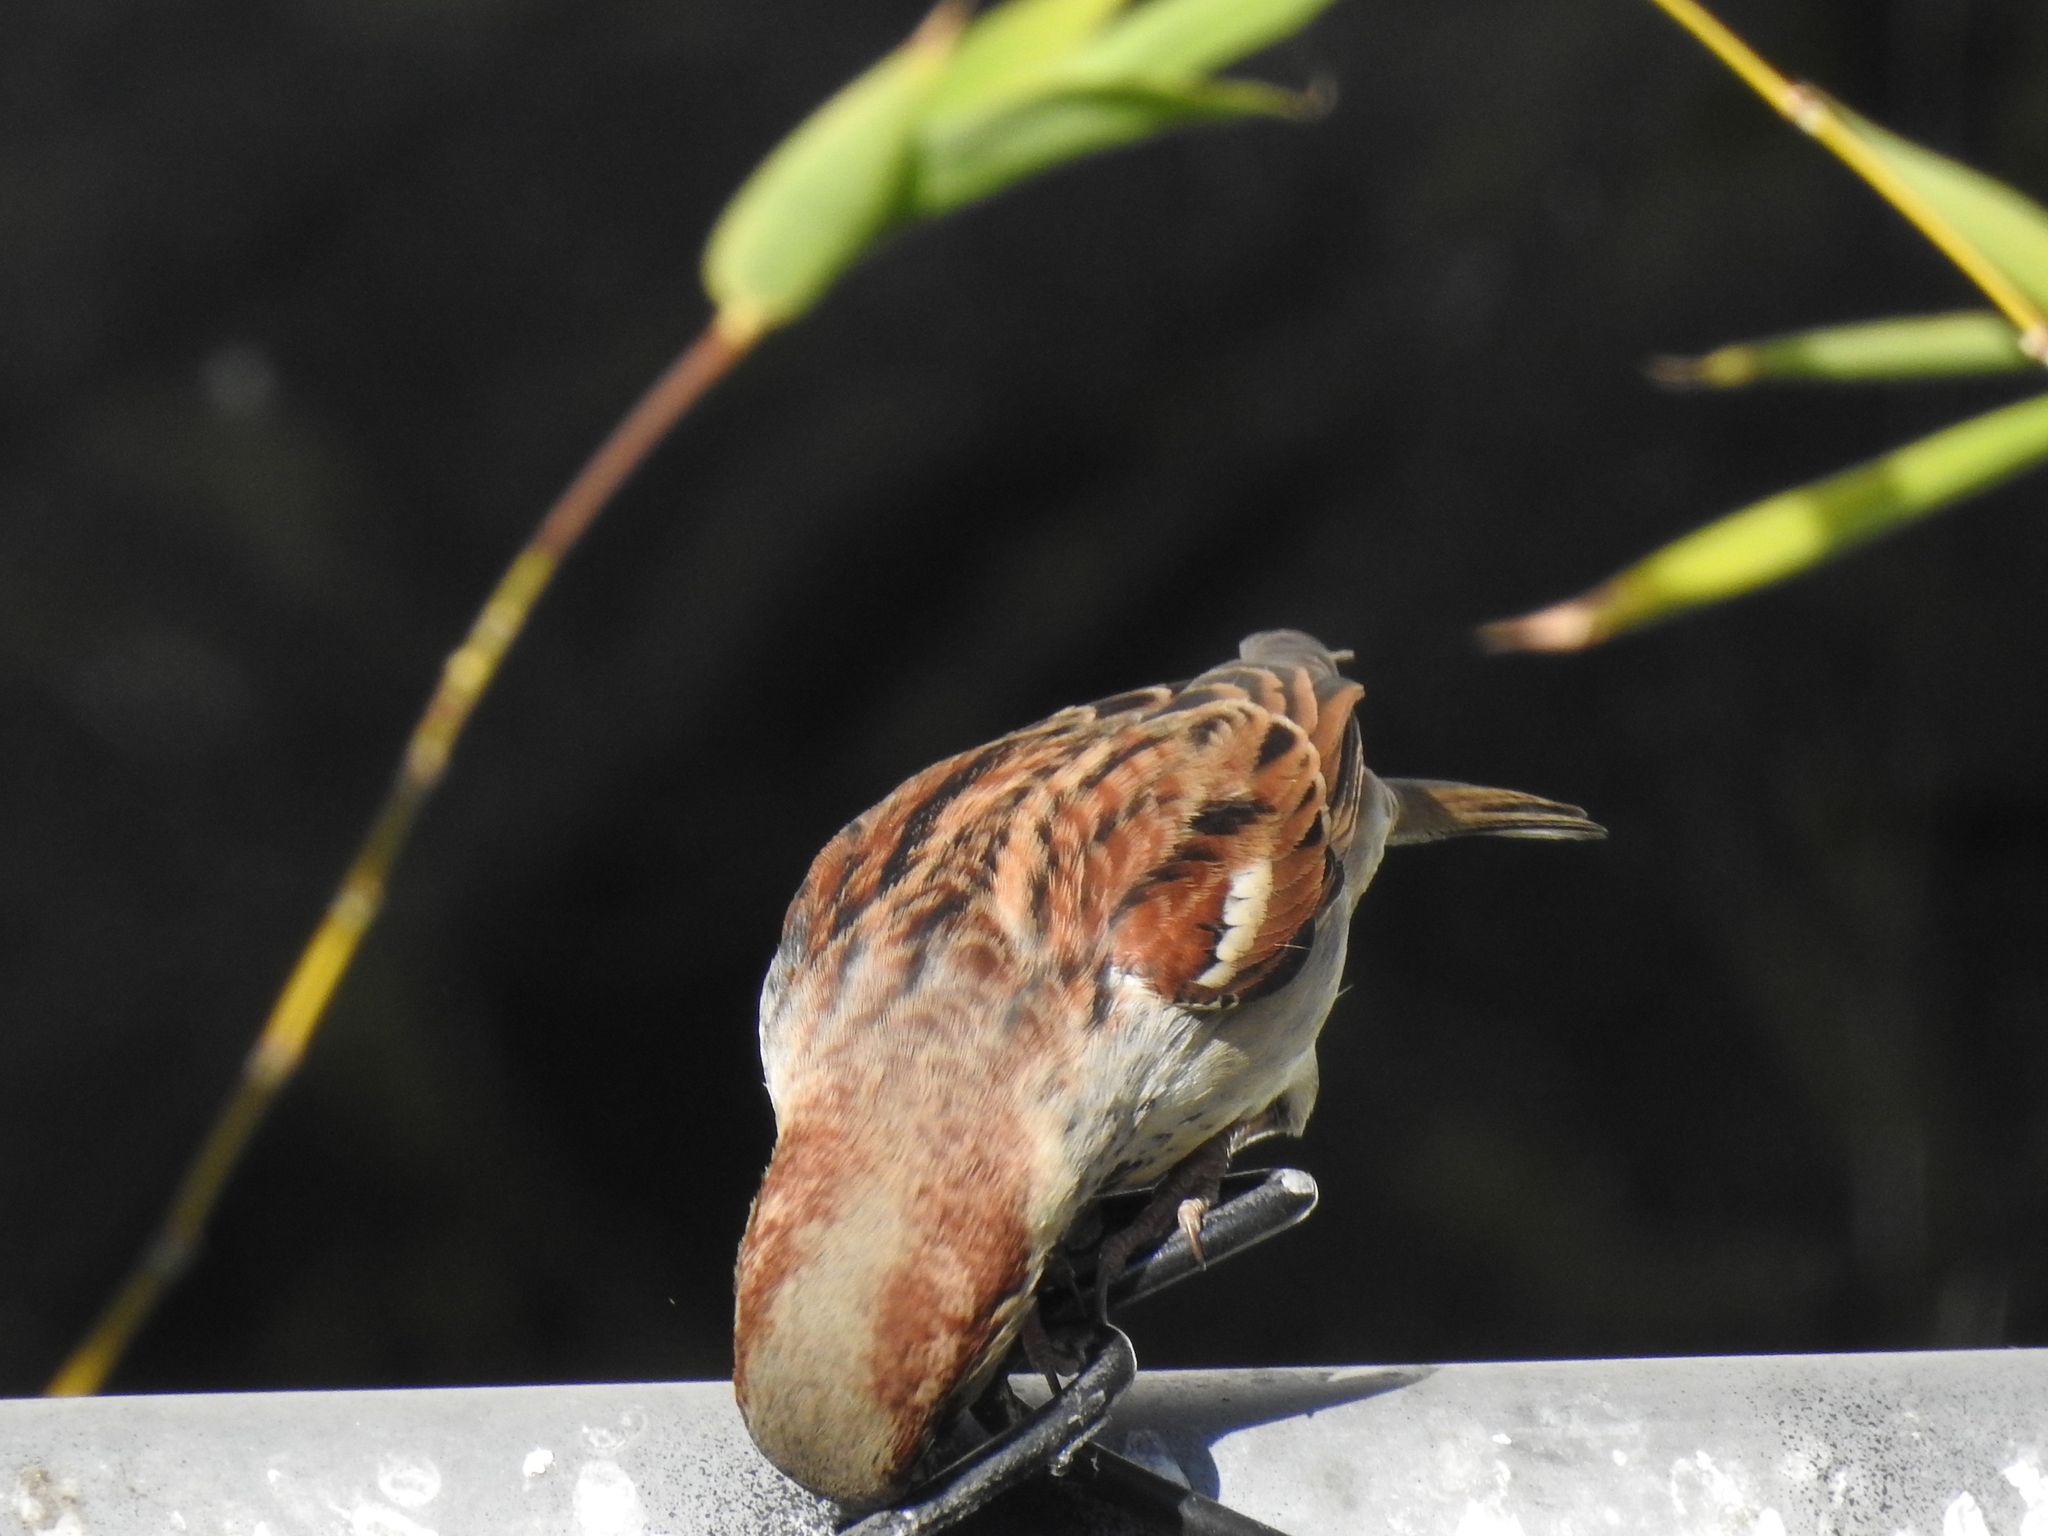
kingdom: Animalia
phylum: Chordata
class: Aves
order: Passeriformes
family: Passeridae
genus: Passer
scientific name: Passer domesticus
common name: House sparrow
